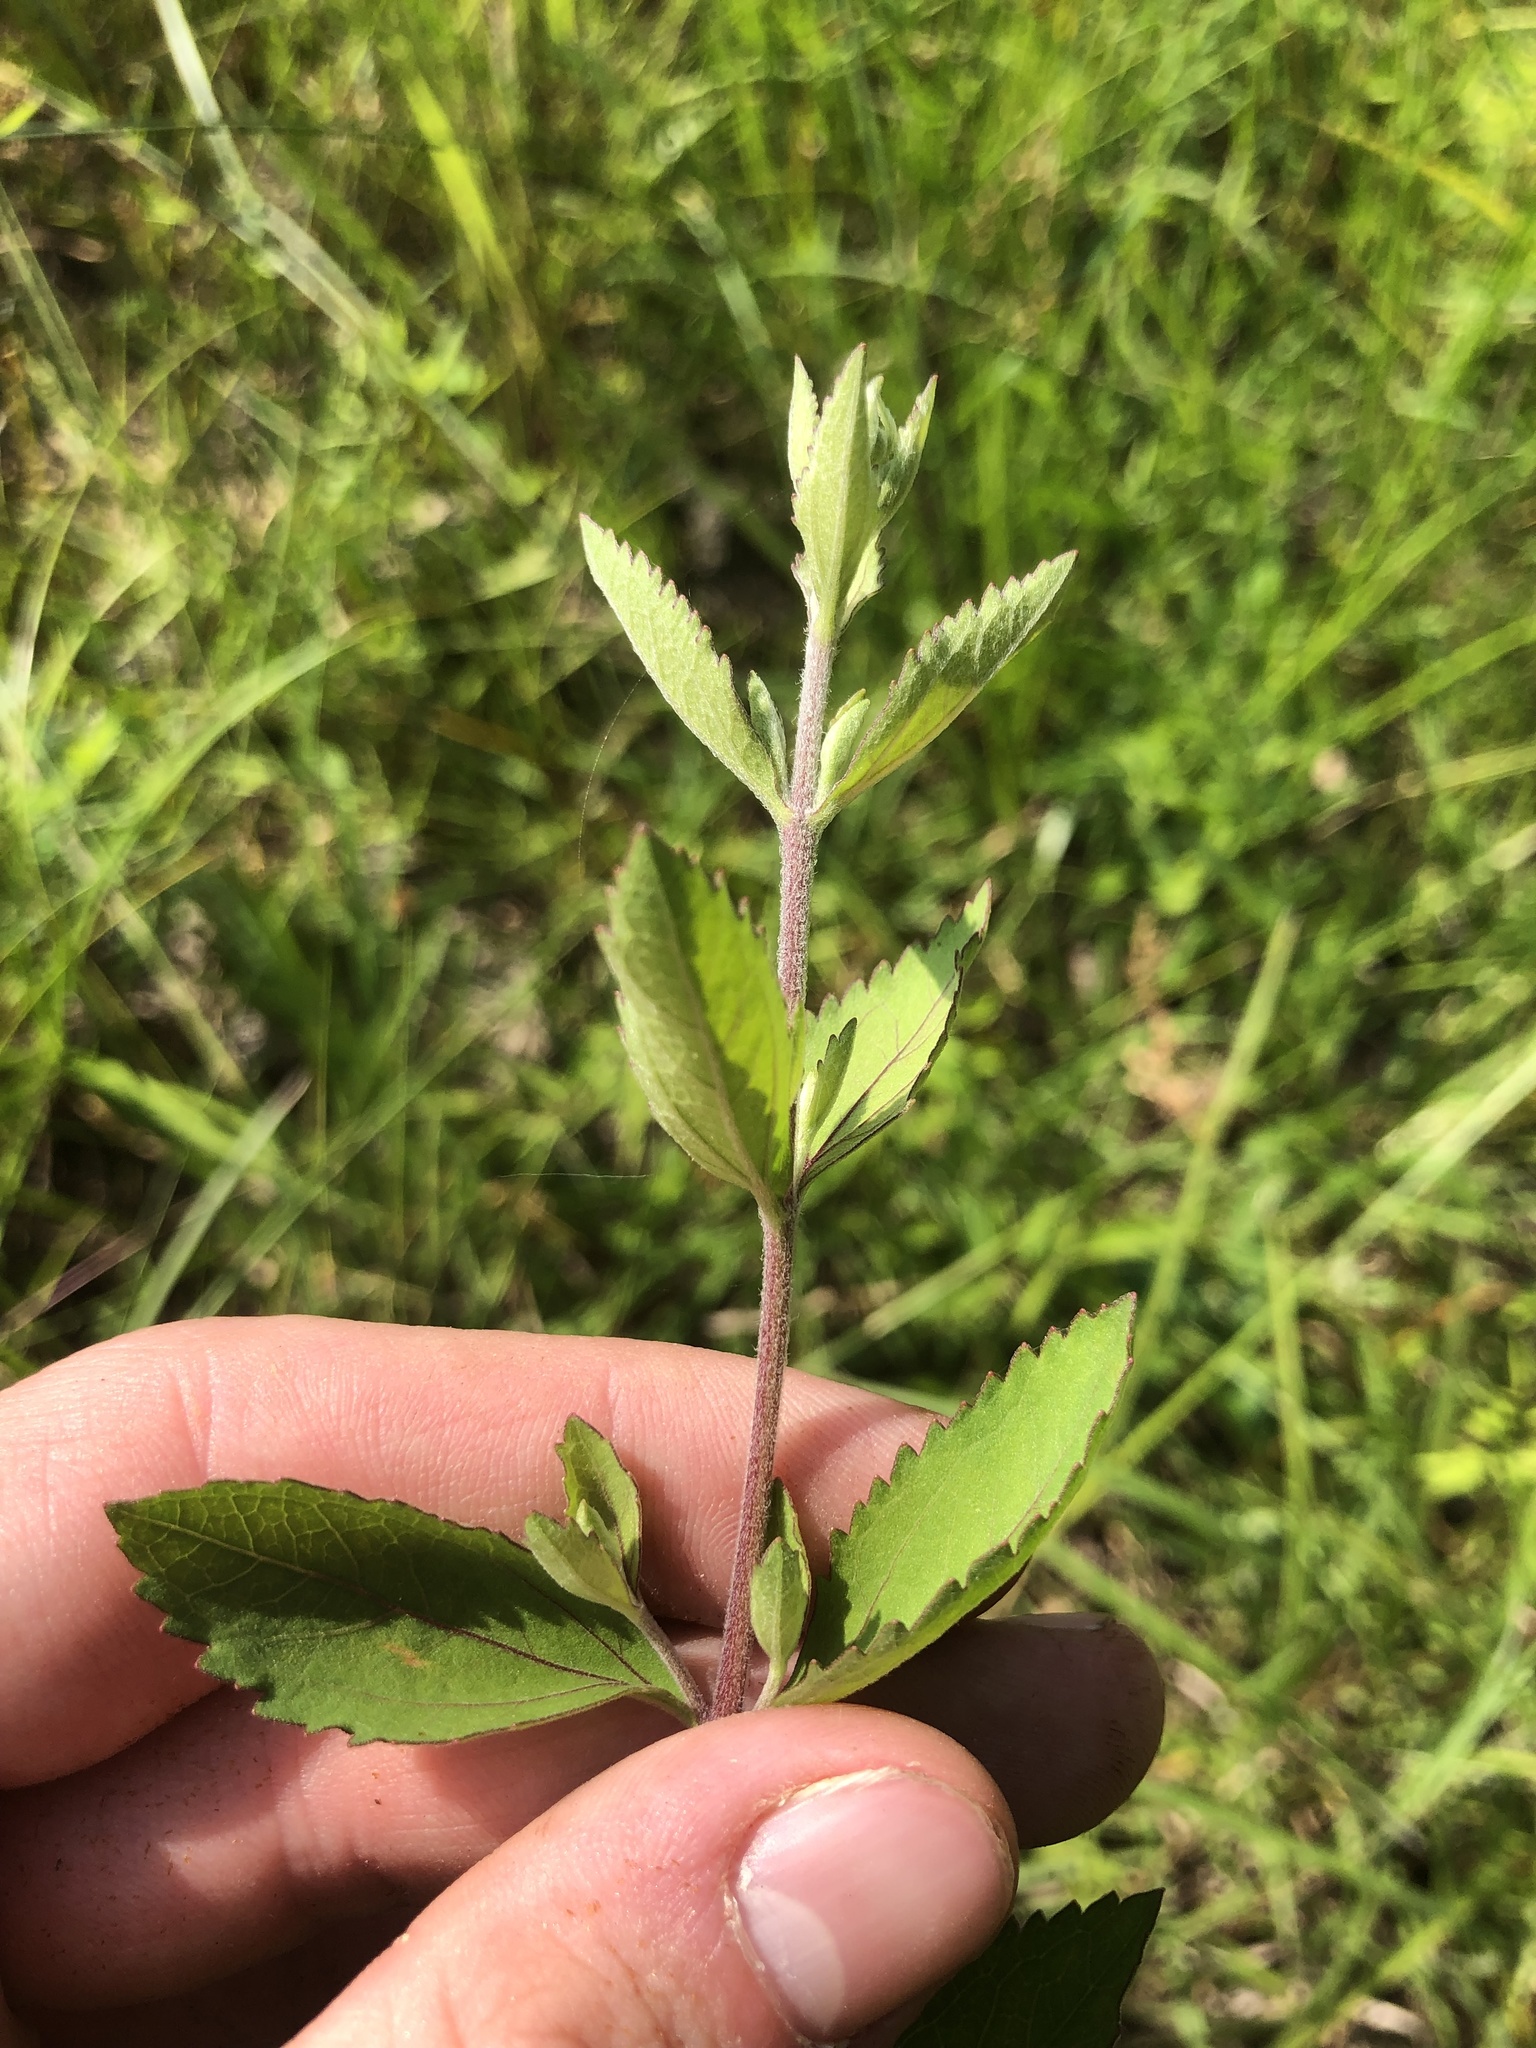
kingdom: Plantae
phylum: Tracheophyta
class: Magnoliopsida
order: Asterales
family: Asteraceae
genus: Eupatorium
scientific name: Eupatorium rotundifolium
